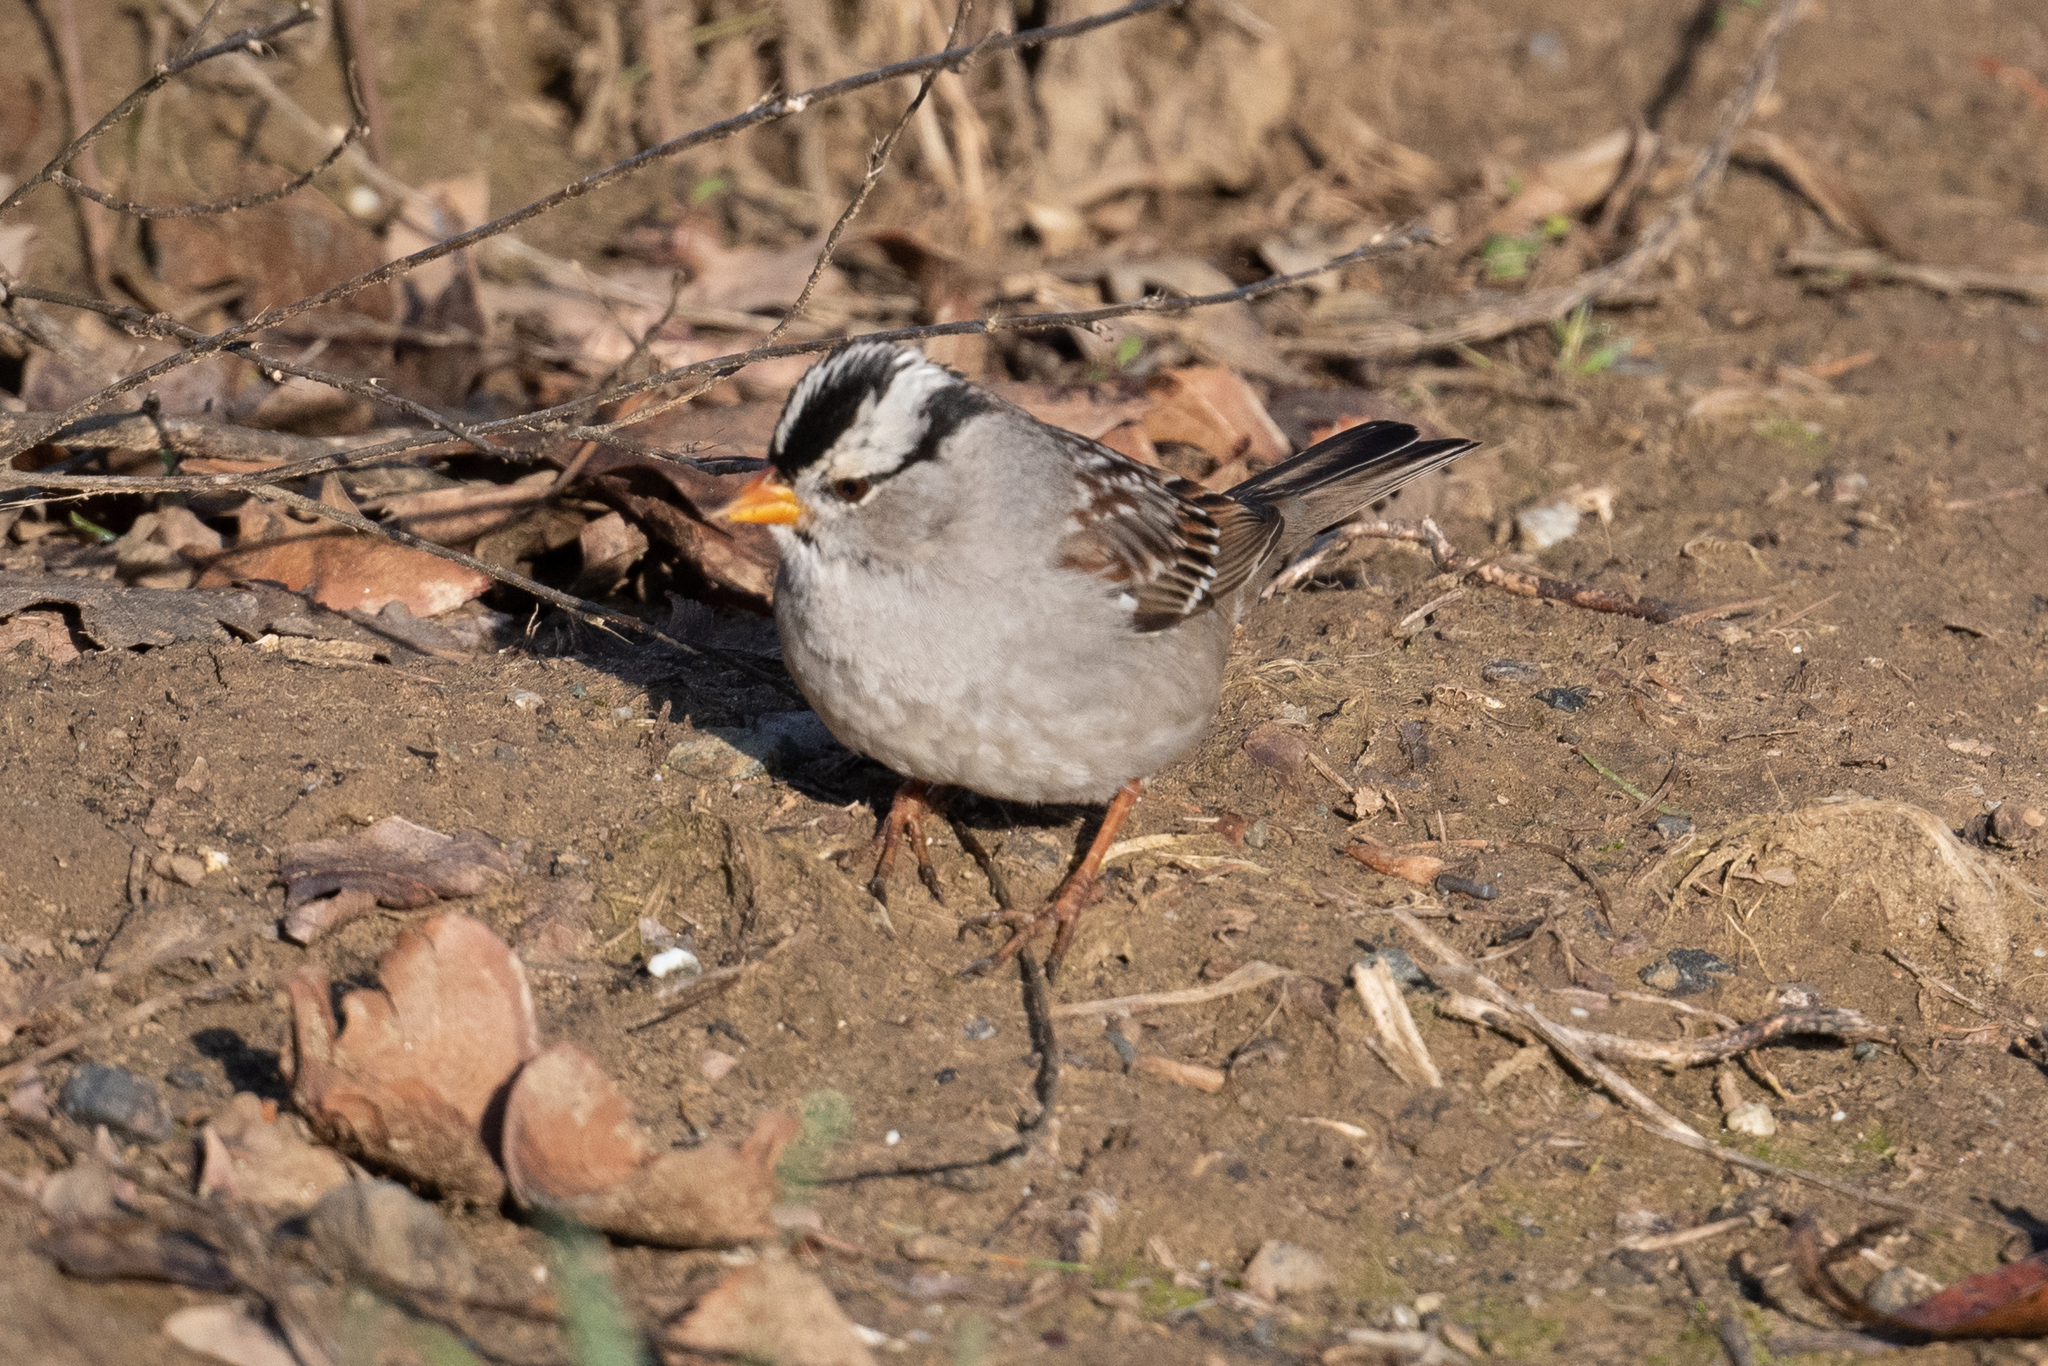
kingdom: Animalia
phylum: Chordata
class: Aves
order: Passeriformes
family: Passerellidae
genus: Zonotrichia
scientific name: Zonotrichia leucophrys
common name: White-crowned sparrow
